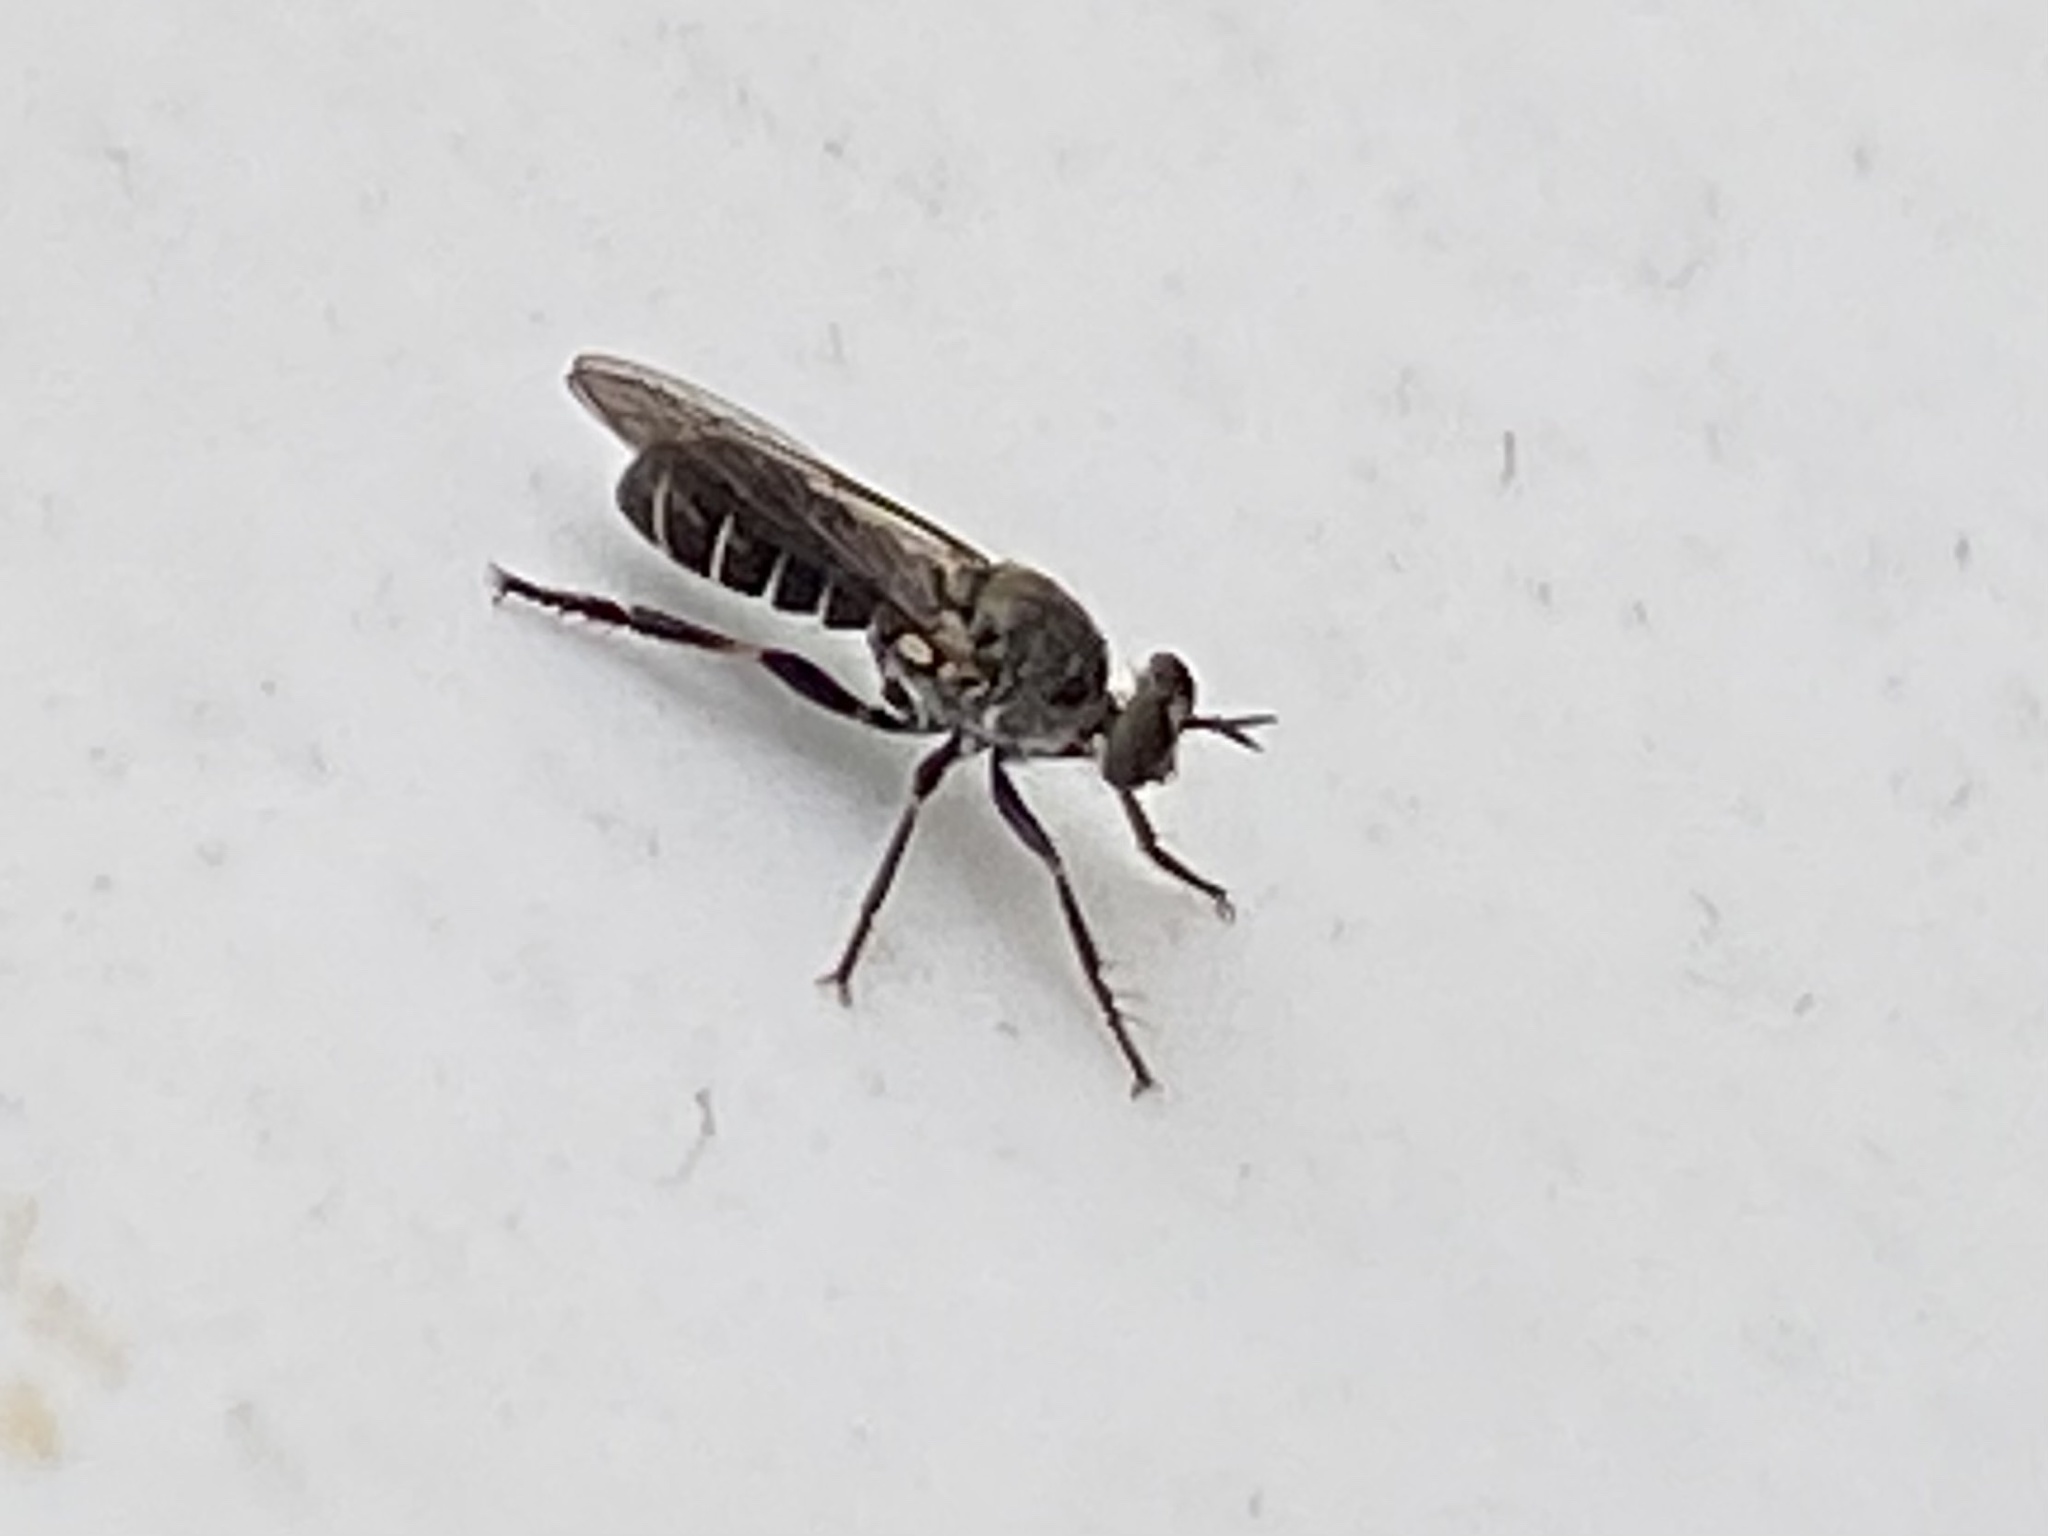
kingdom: Animalia
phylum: Arthropoda
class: Insecta
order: Diptera
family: Asilidae
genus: Atomosia
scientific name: Atomosia
